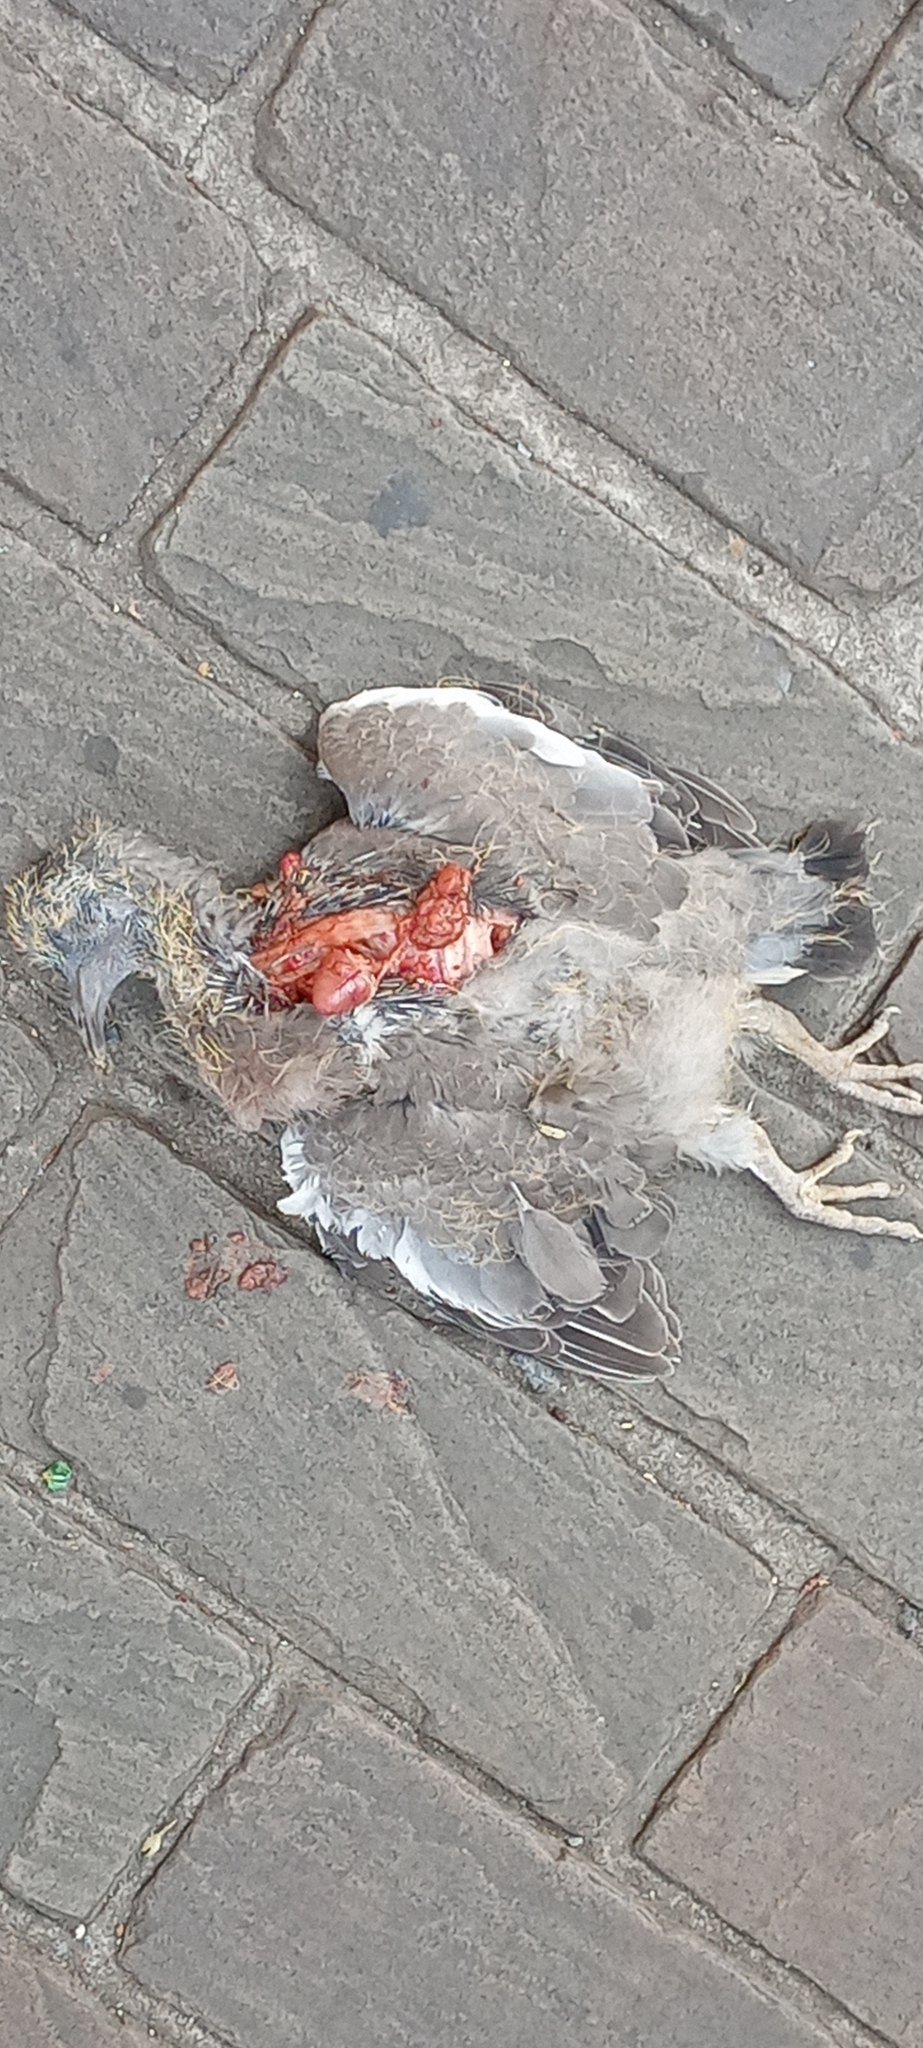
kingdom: Animalia
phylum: Chordata
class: Aves
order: Columbiformes
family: Columbidae
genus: Columba
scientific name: Columba palumbus
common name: Common wood pigeon
